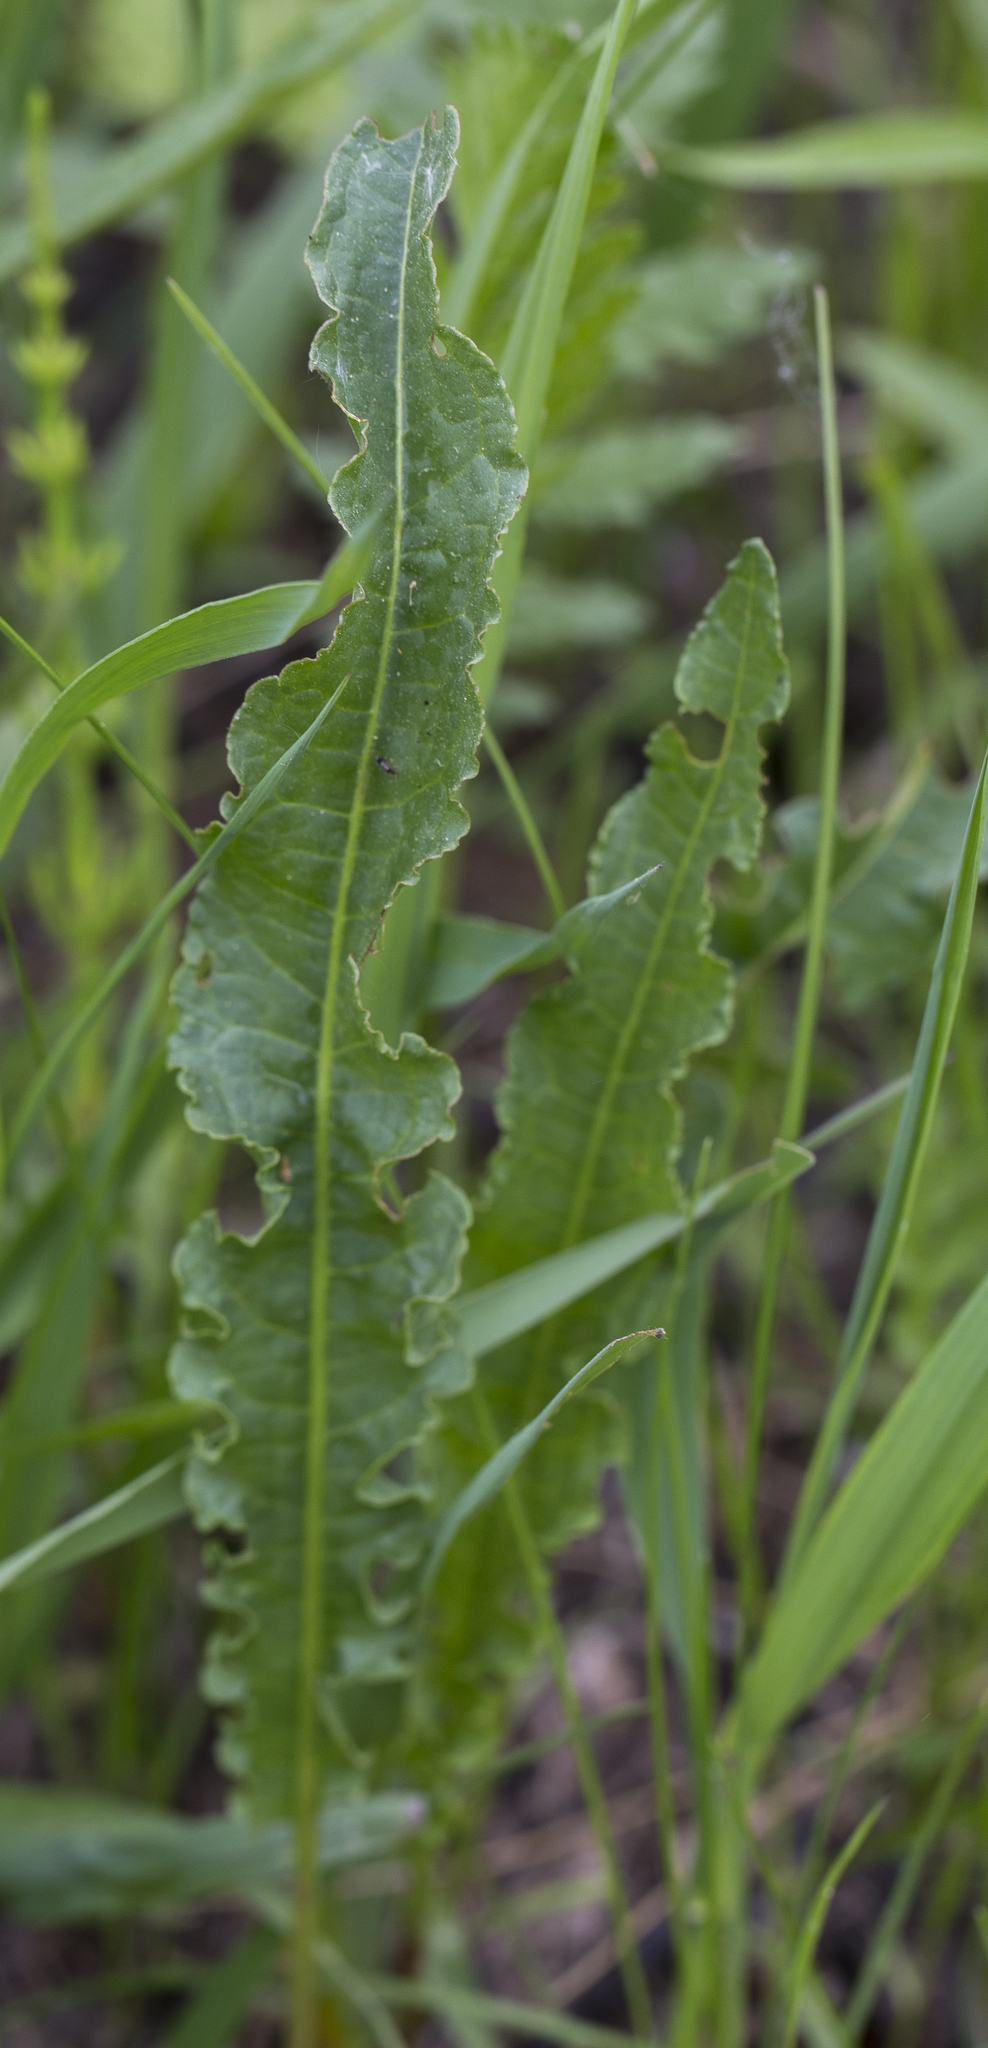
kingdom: Plantae
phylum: Tracheophyta
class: Magnoliopsida
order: Caryophyllales
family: Polygonaceae
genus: Rumex
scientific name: Rumex crispus
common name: Curled dock
